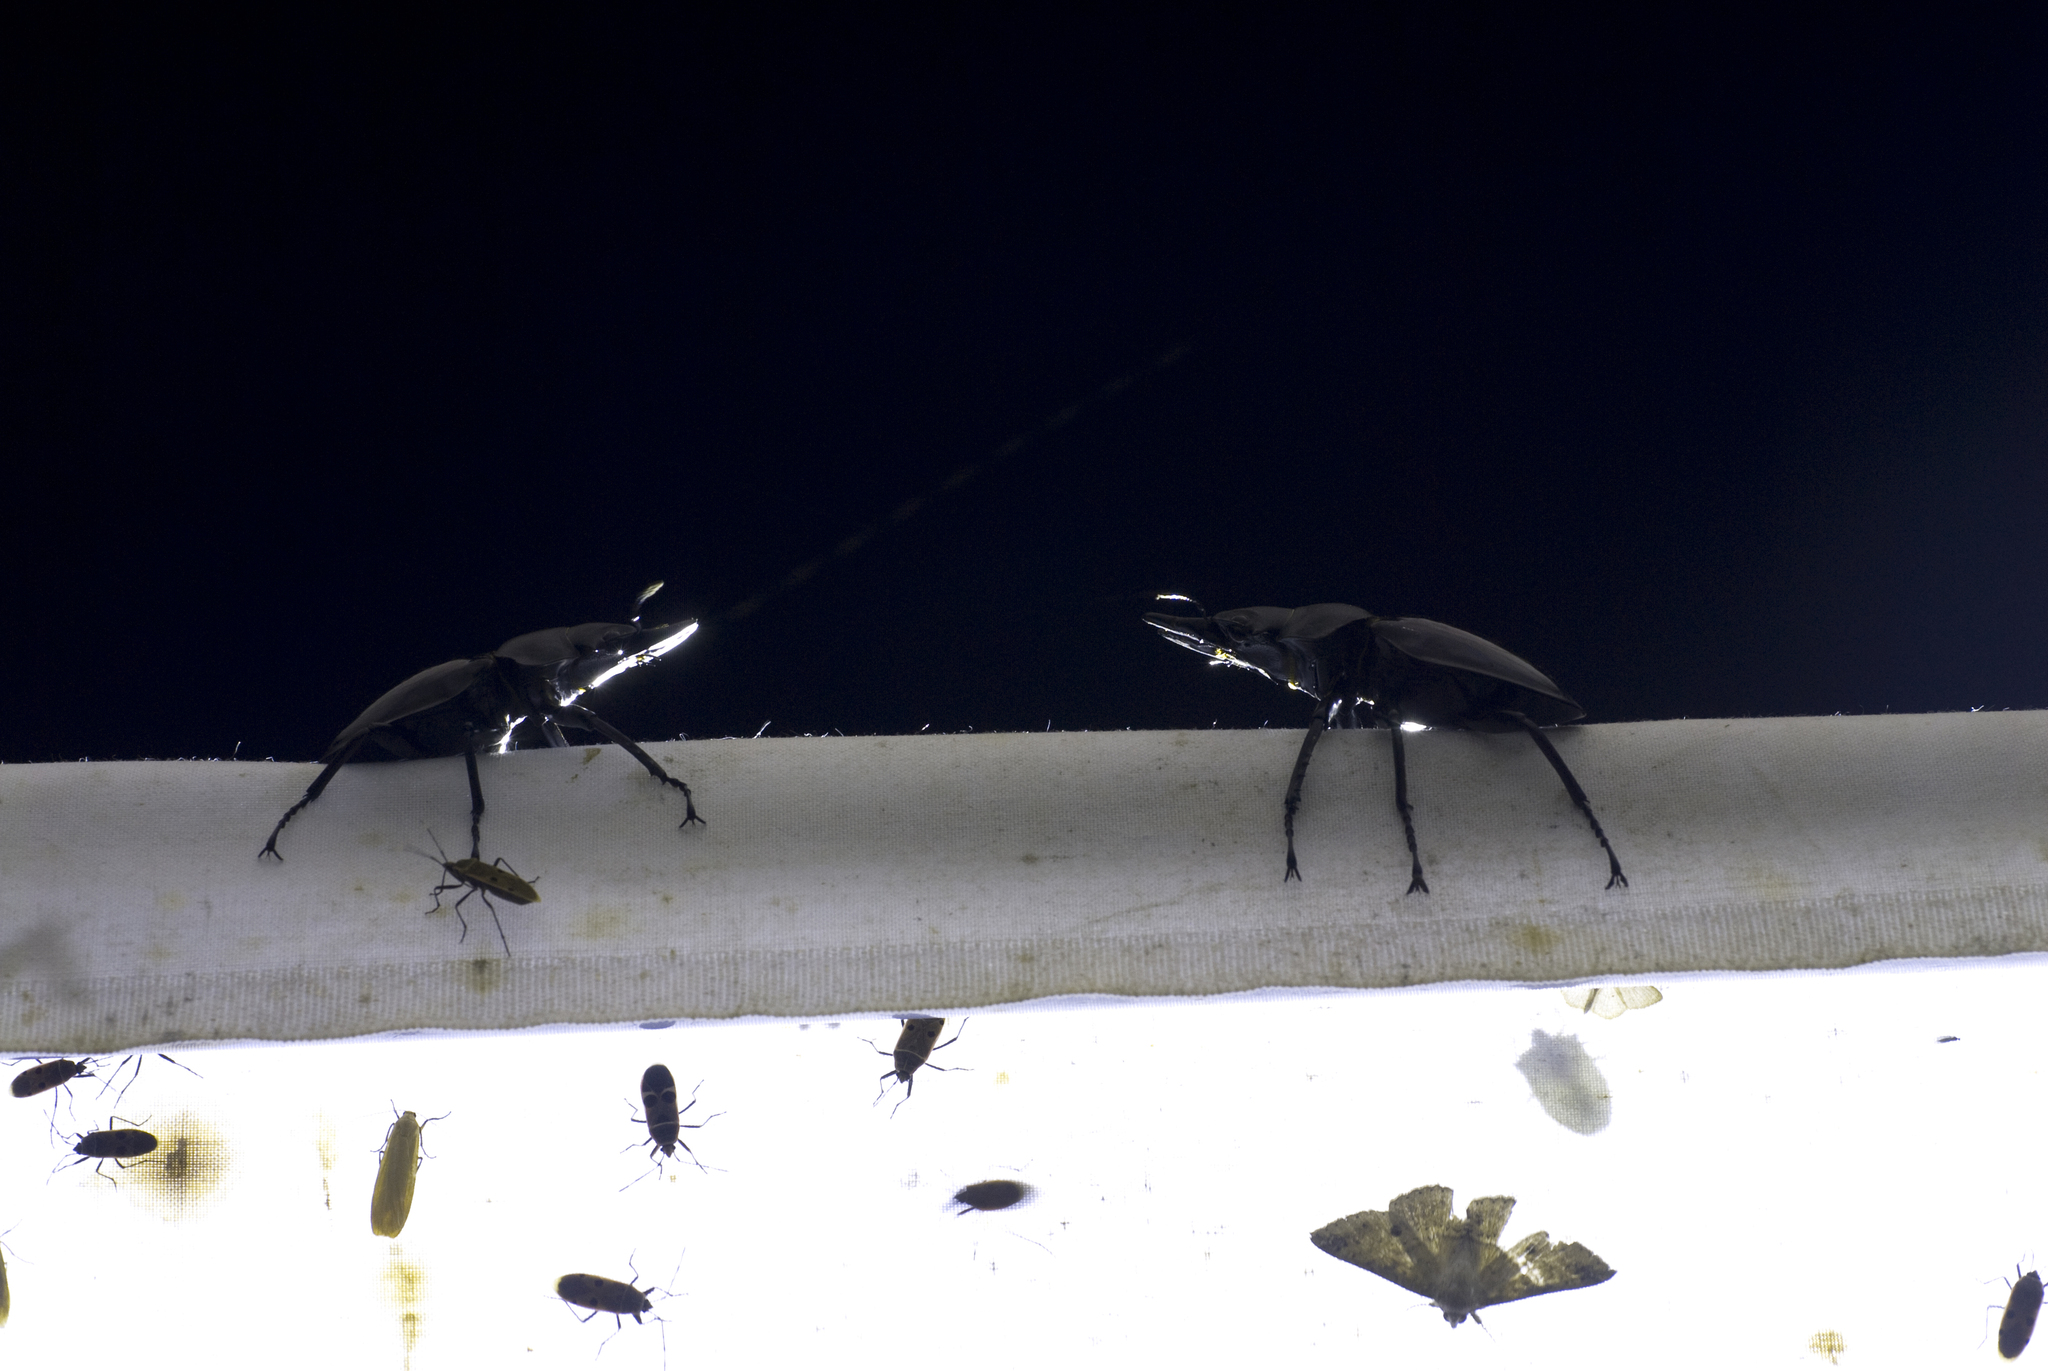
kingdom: Animalia
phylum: Arthropoda
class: Insecta
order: Coleoptera
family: Lucanidae
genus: Odontolabis
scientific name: Odontolabis siva
